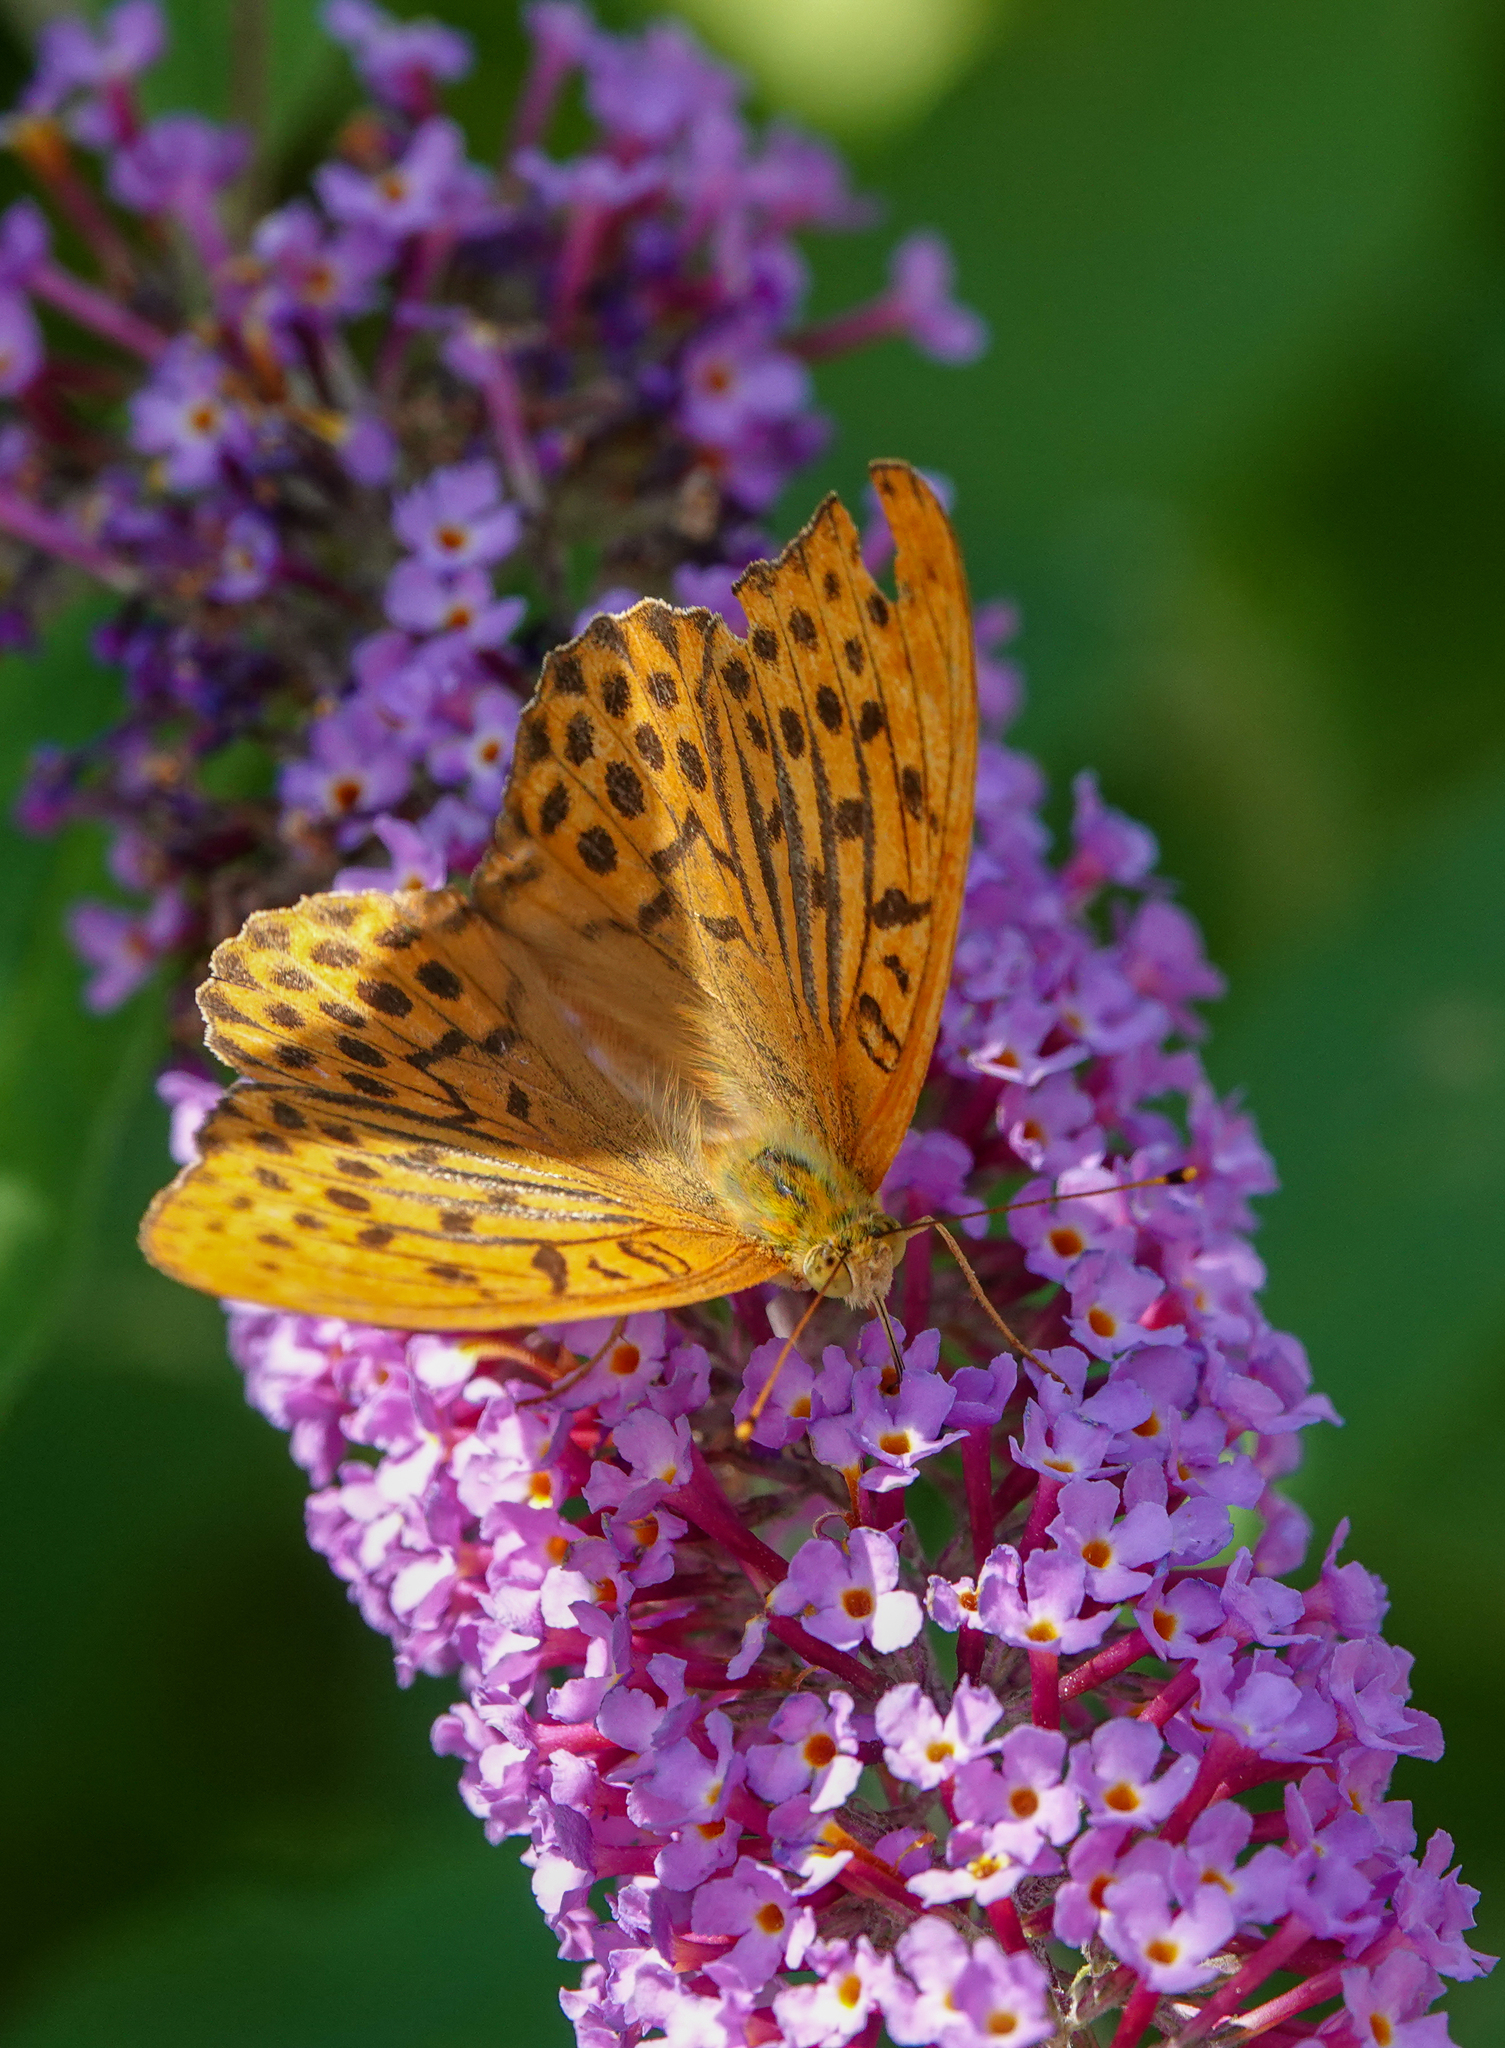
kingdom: Animalia
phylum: Arthropoda
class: Insecta
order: Lepidoptera
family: Nymphalidae
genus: Argynnis
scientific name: Argynnis paphia
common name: Silver-washed fritillary
